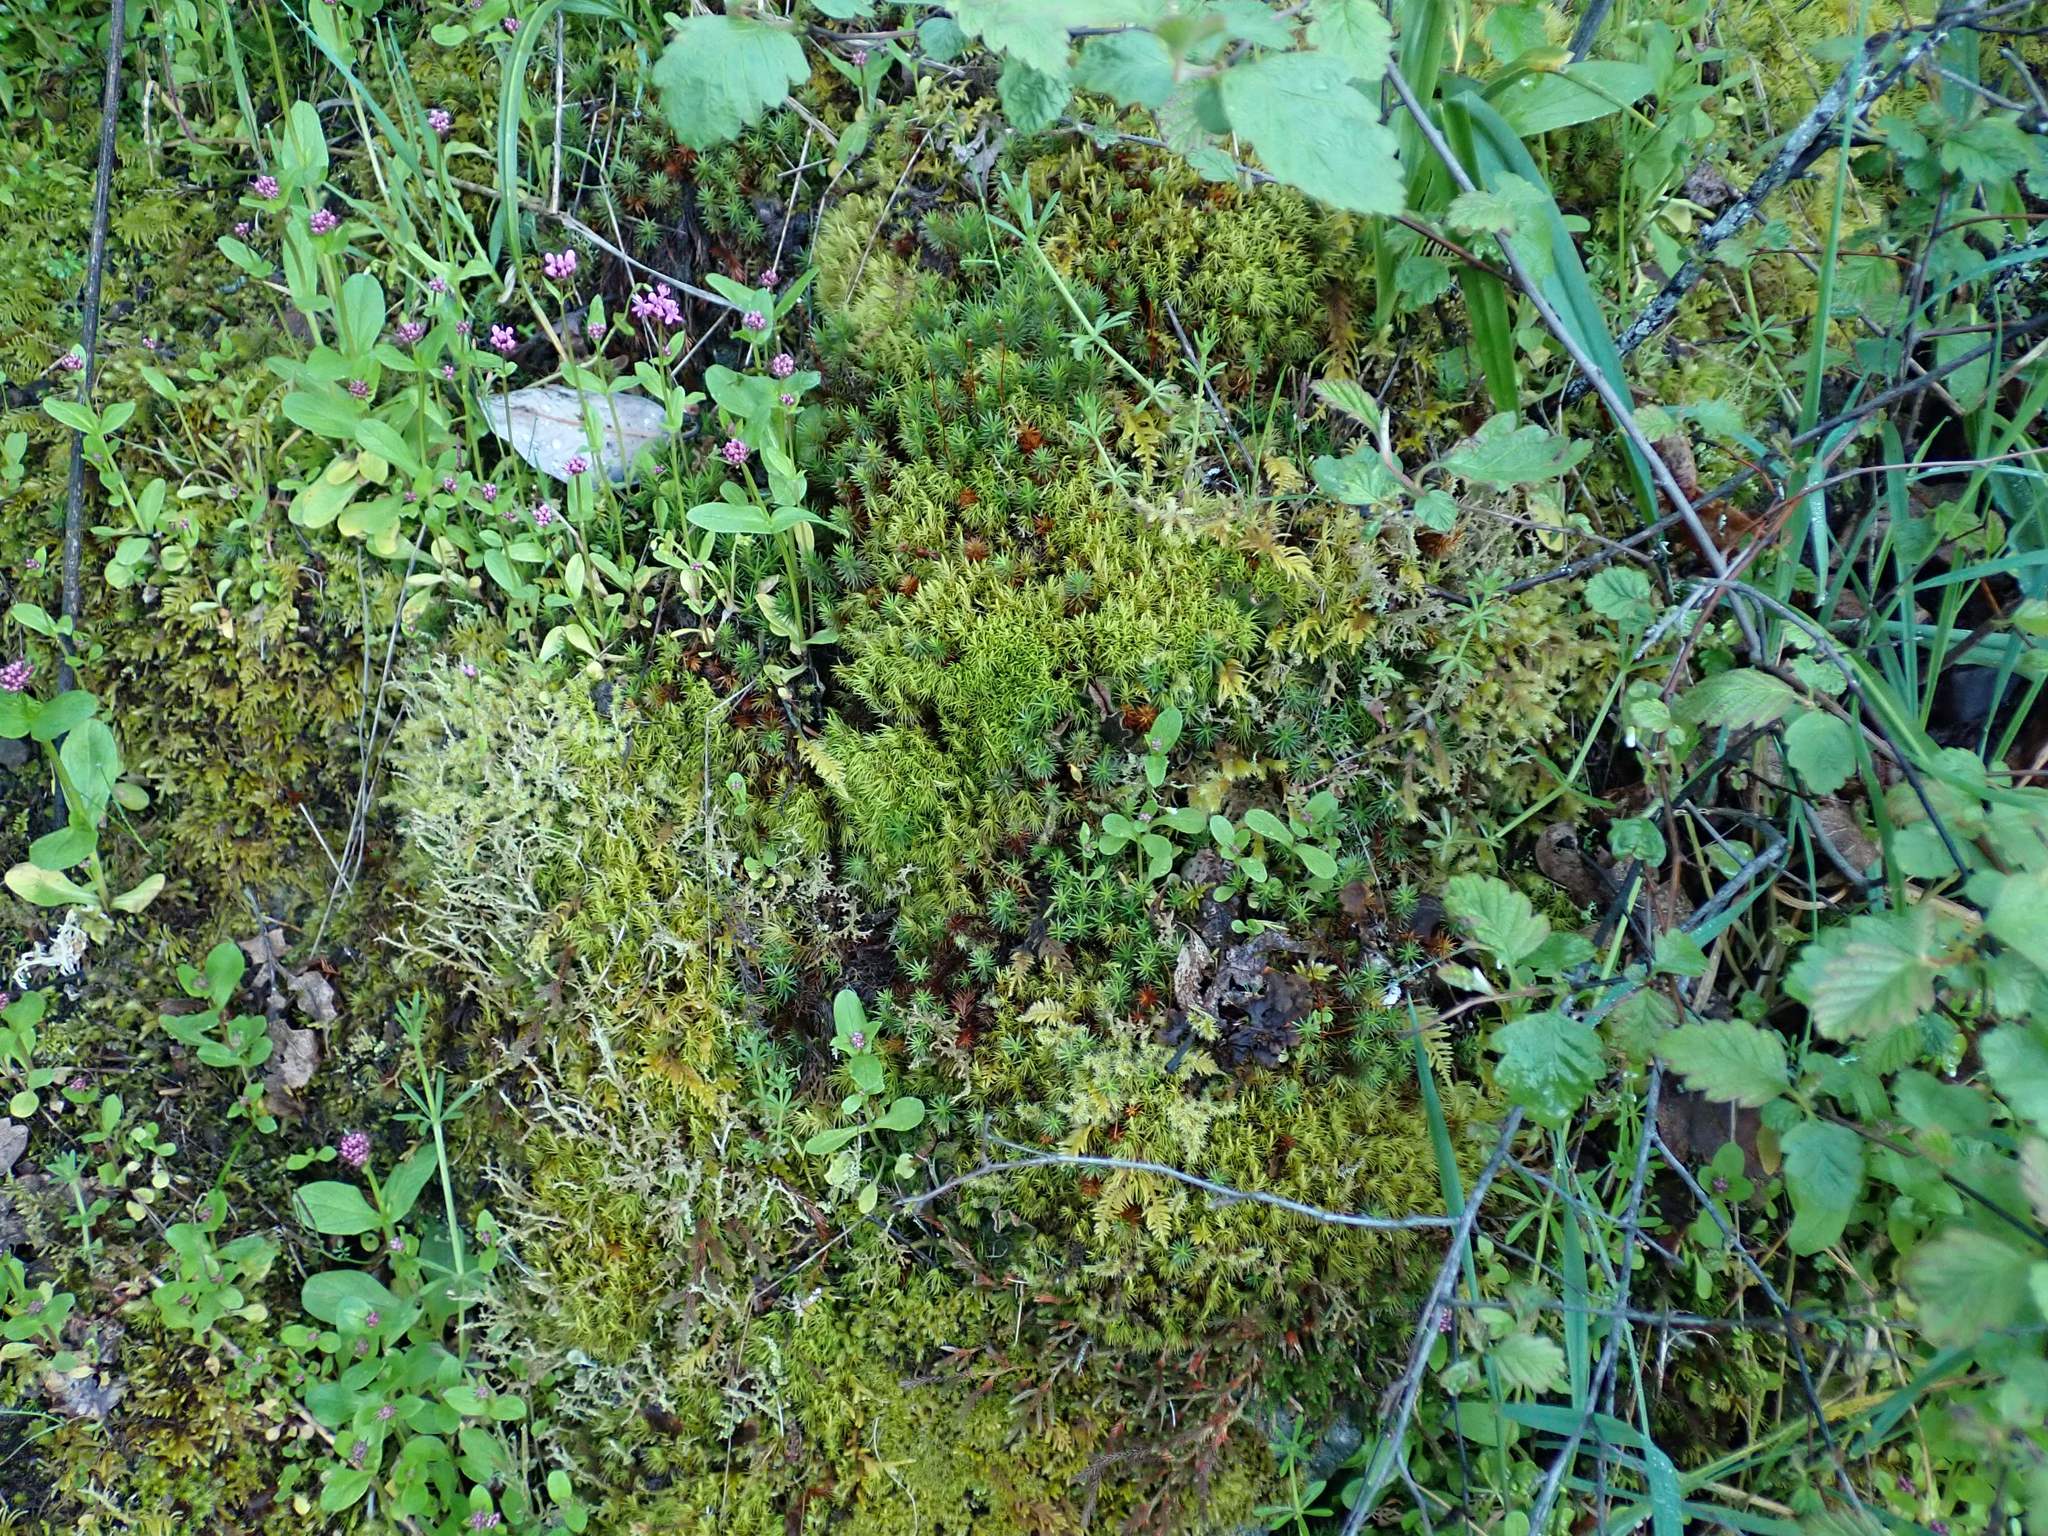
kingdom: Plantae
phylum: Bryophyta
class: Bryopsida
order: Dicranales
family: Dicranaceae
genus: Orthodicranum
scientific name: Orthodicranum tauricum
